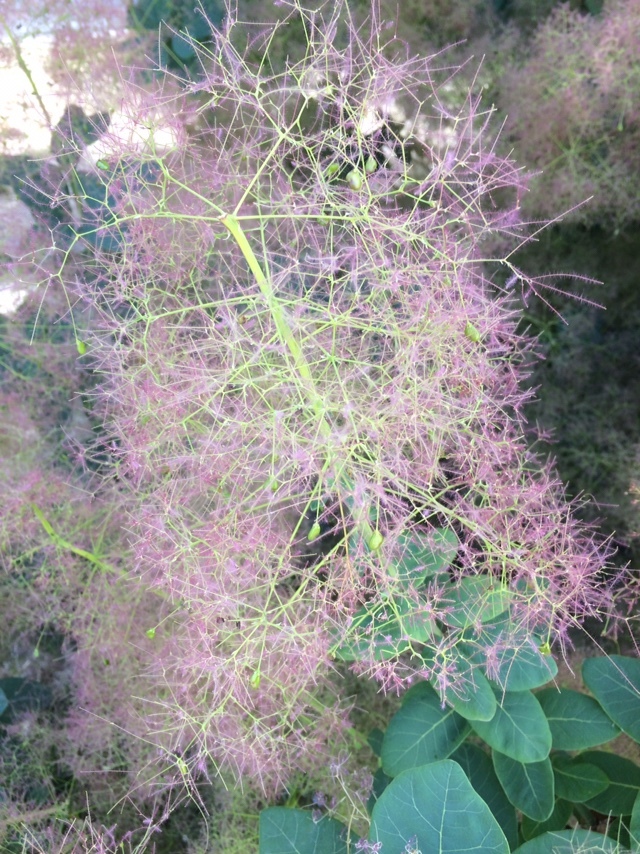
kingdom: Plantae
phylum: Tracheophyta
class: Magnoliopsida
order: Sapindales
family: Anacardiaceae
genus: Cotinus
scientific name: Cotinus coggygria
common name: Smoke-tree
